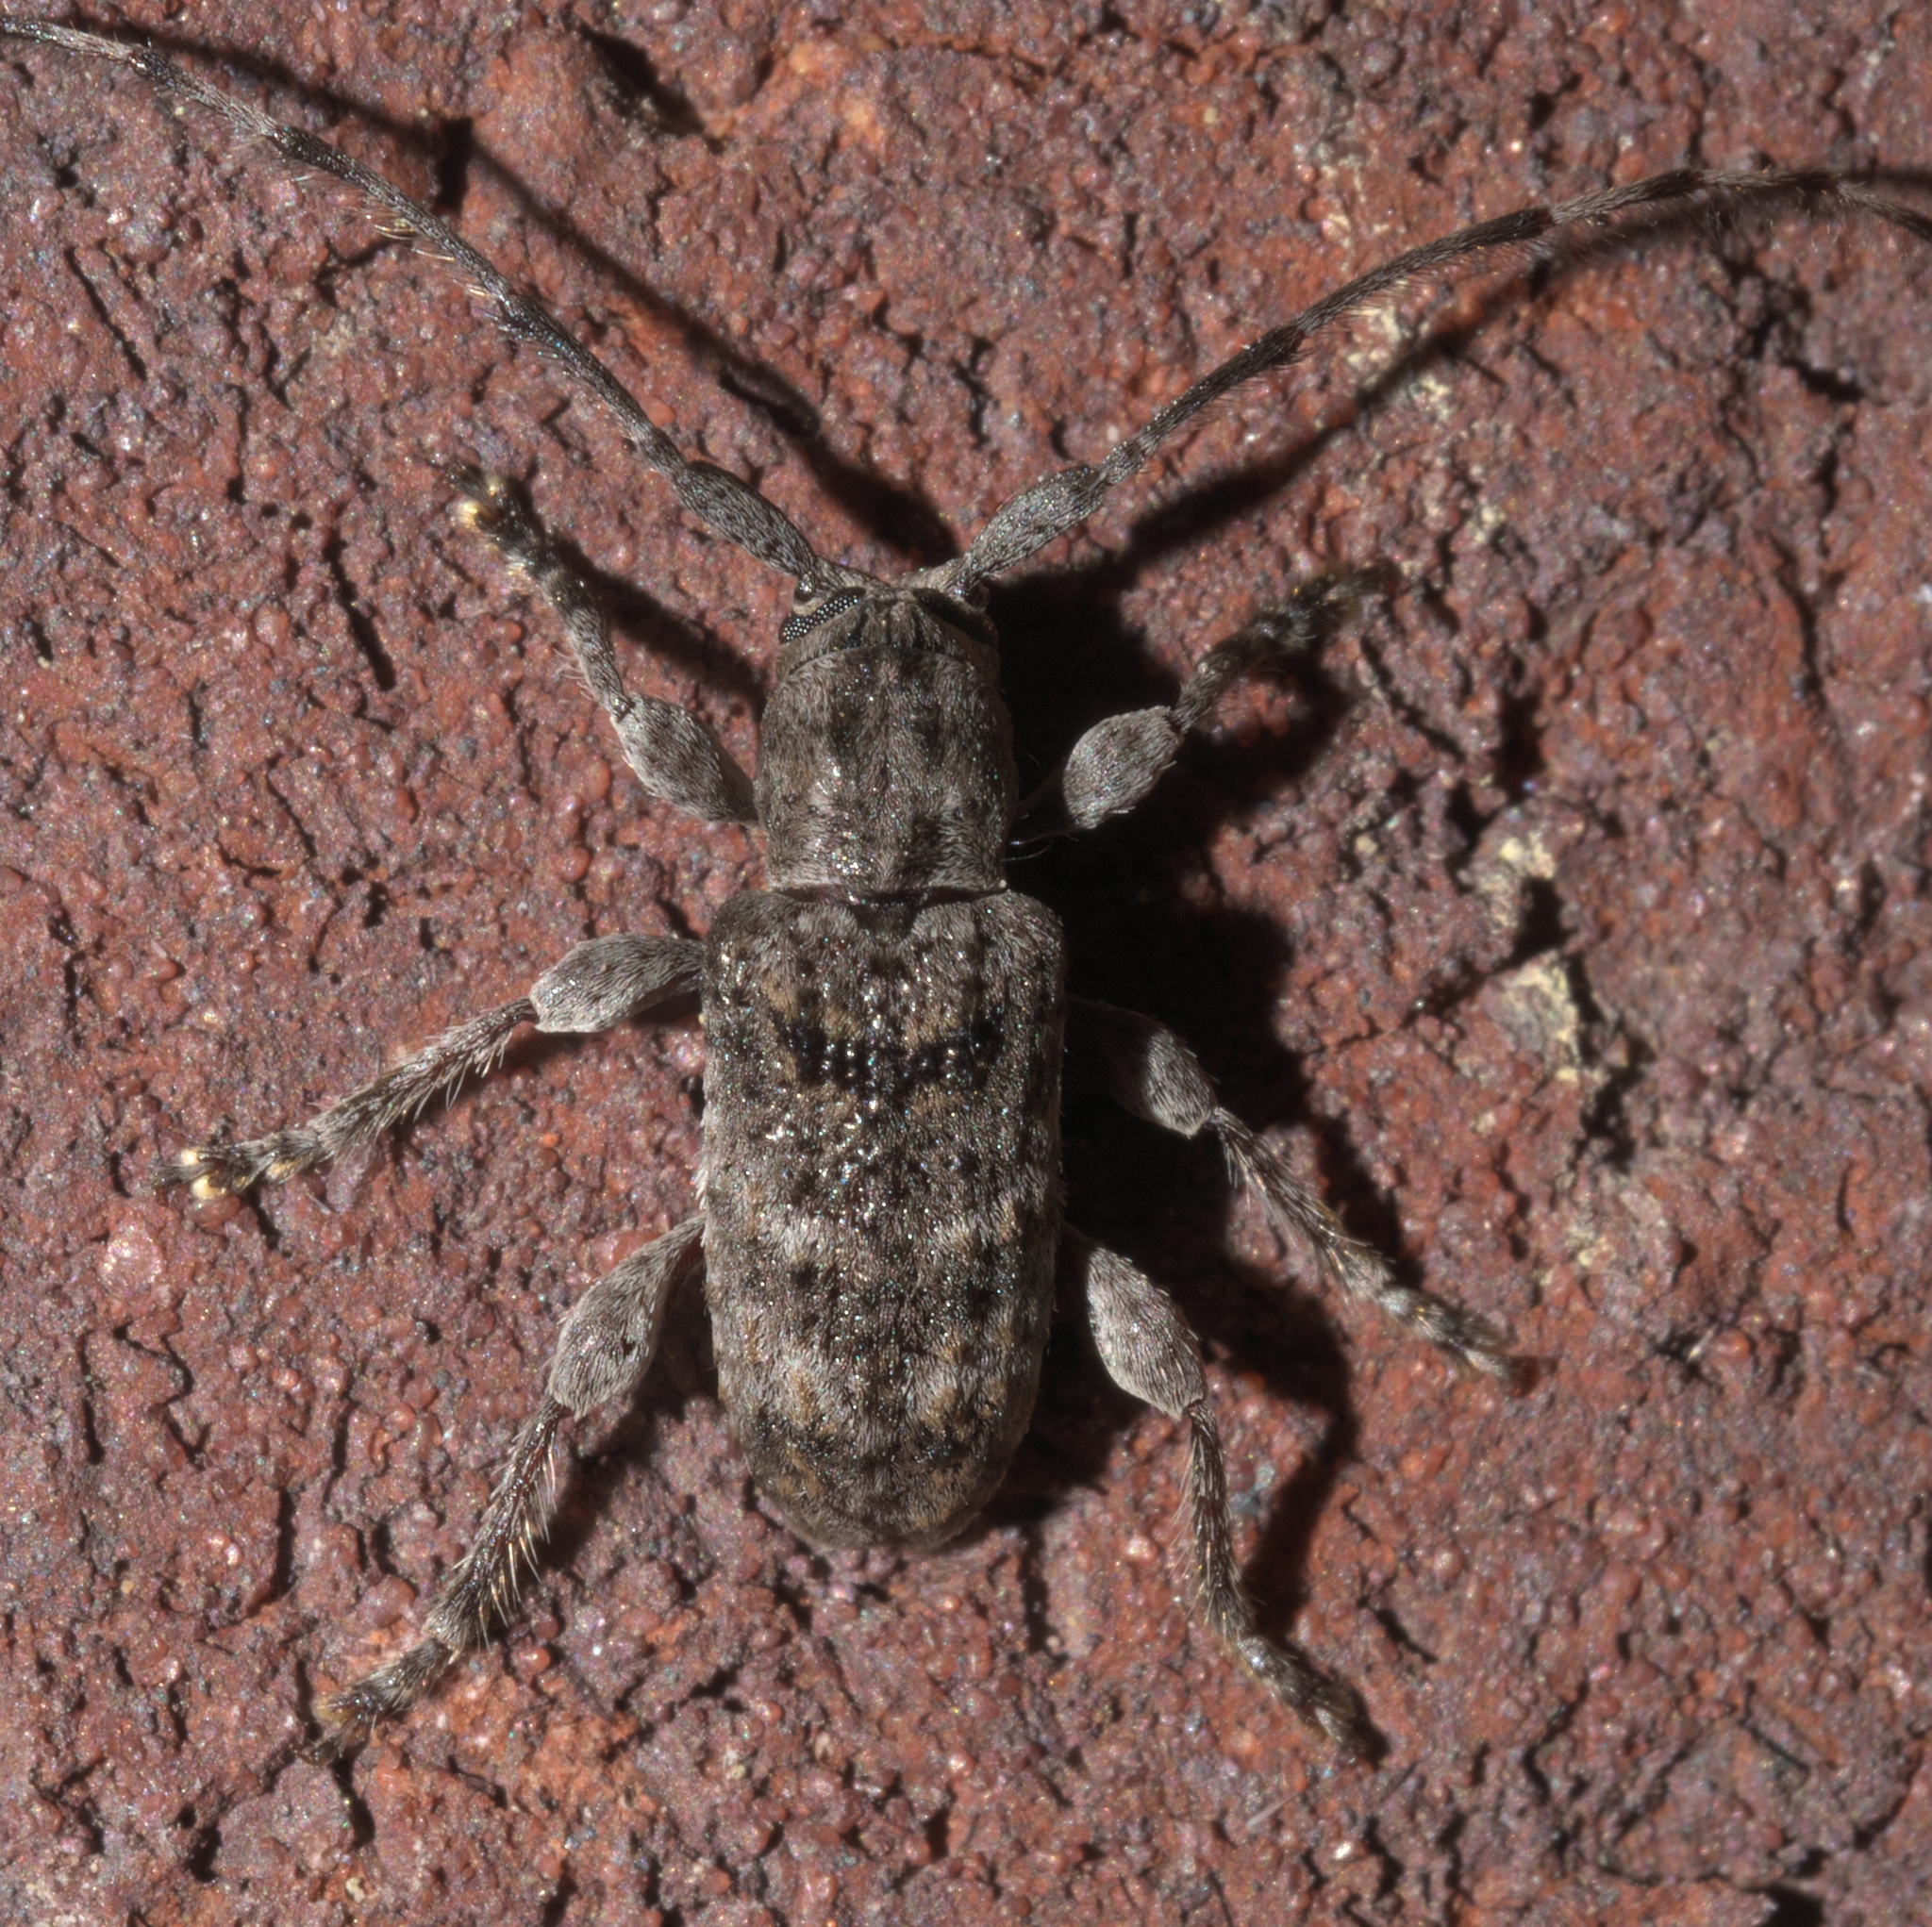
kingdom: Animalia
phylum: Arthropoda
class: Insecta
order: Coleoptera
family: Cerambycidae
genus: Ecyrus
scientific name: Ecyrus dasycerus
